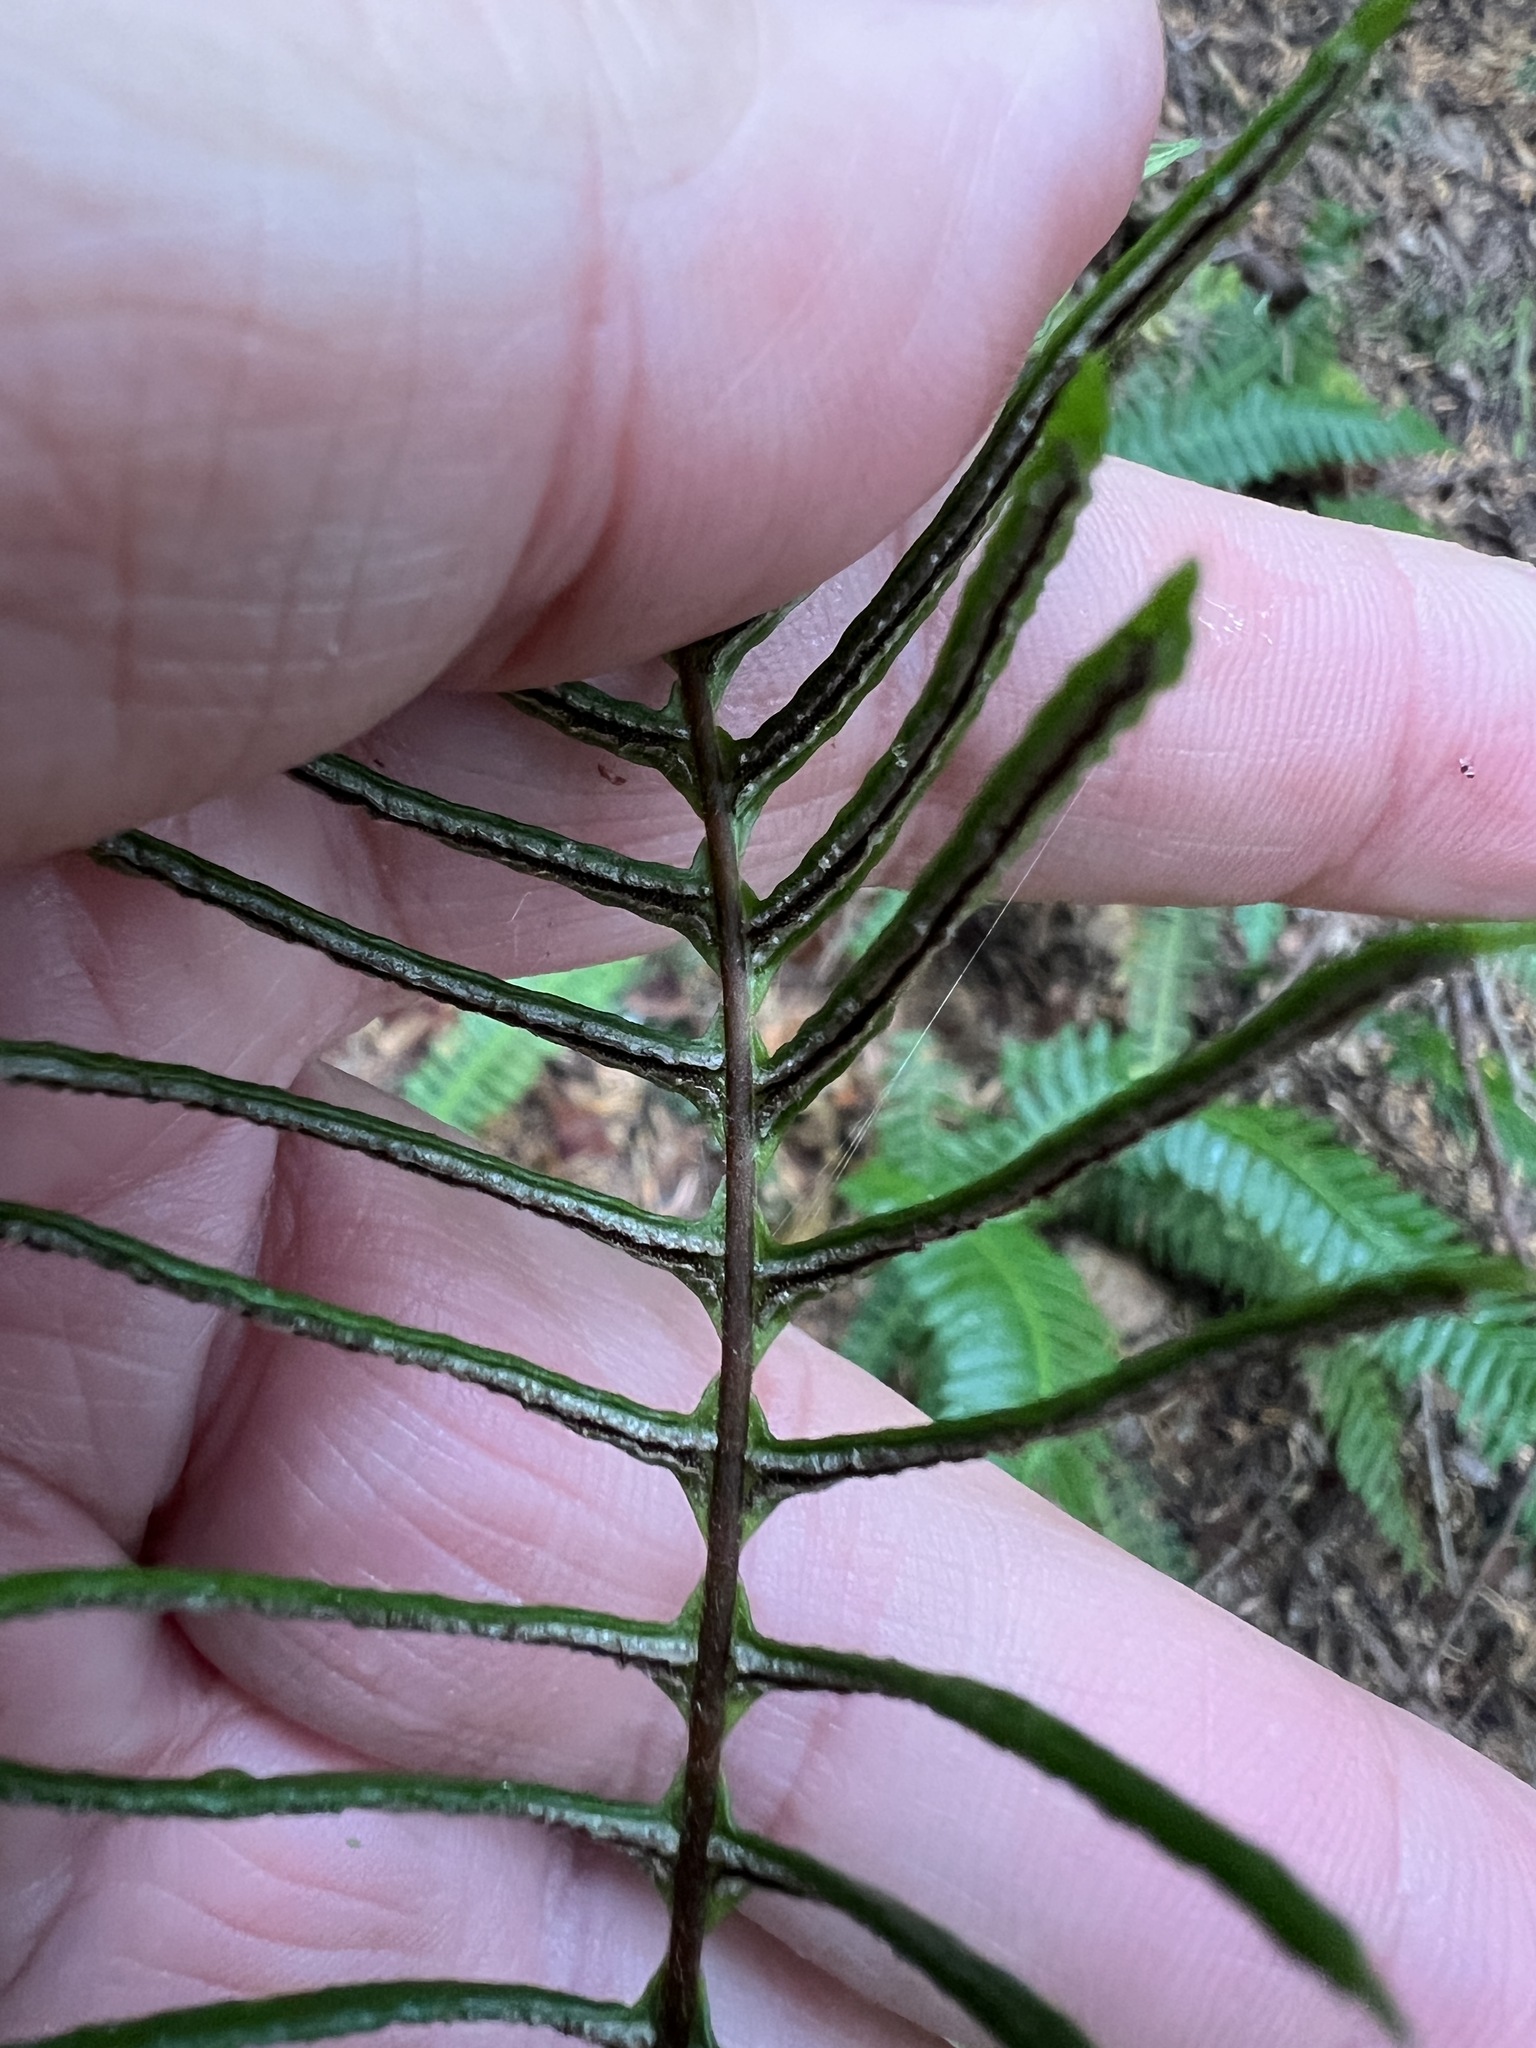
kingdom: Plantae
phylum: Tracheophyta
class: Polypodiopsida
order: Polypodiales
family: Blechnaceae
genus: Struthiopteris
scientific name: Struthiopteris spicant
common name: Deer fern
